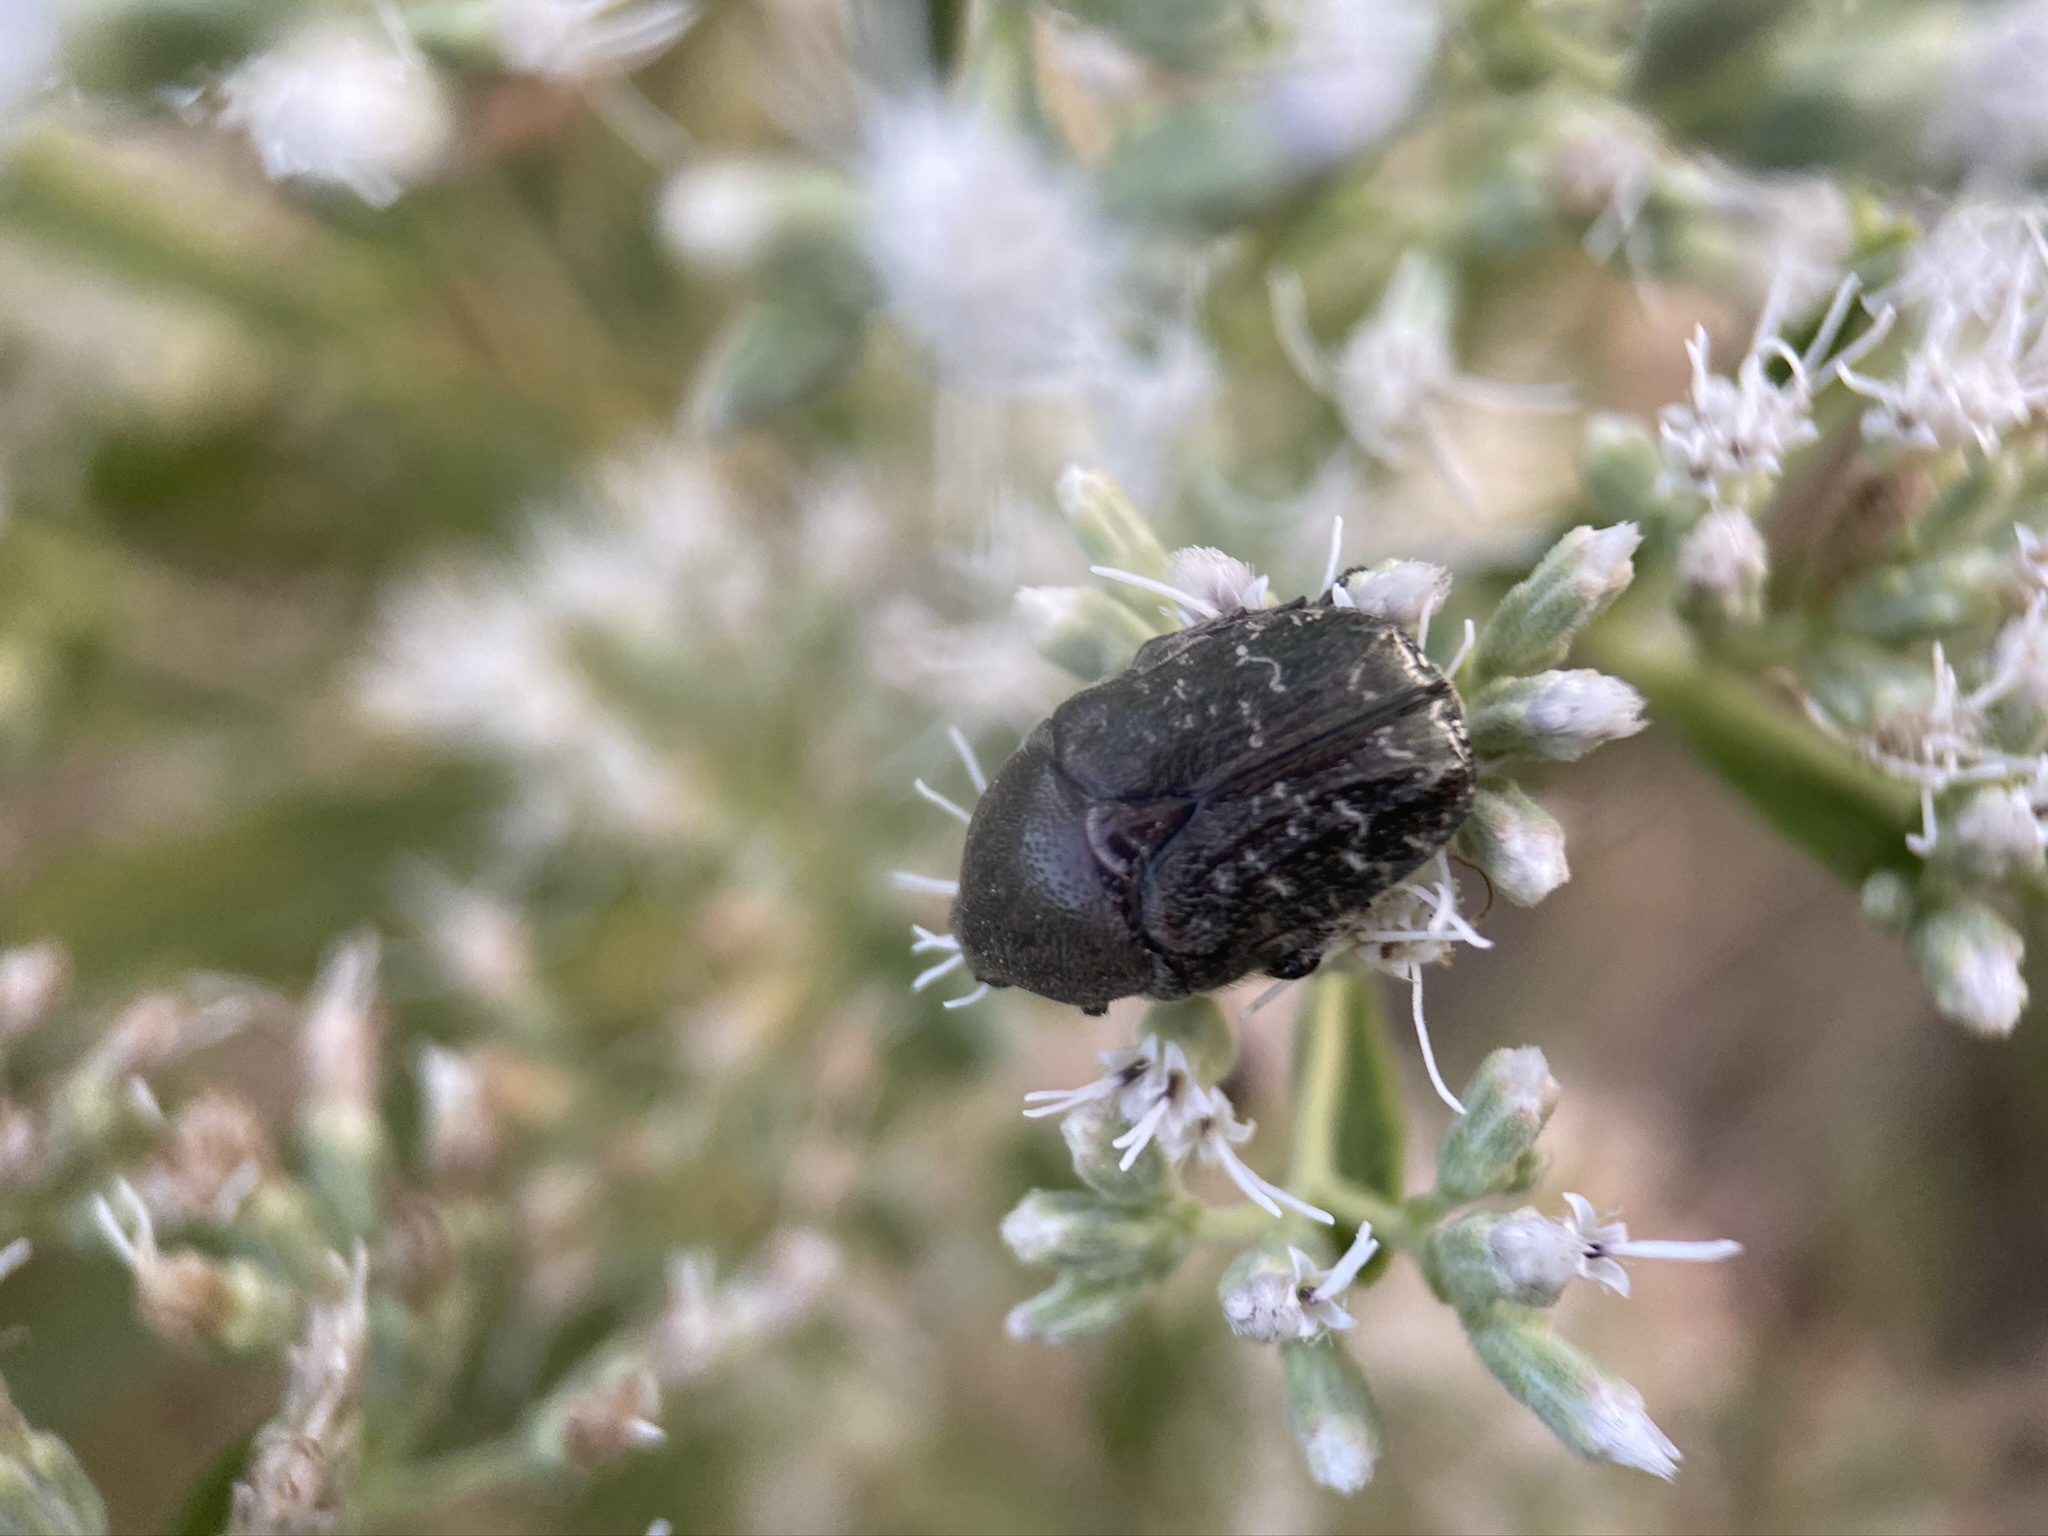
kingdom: Animalia
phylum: Arthropoda
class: Insecta
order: Coleoptera
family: Scarabaeidae
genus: Euphoria
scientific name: Euphoria sepulcralis
